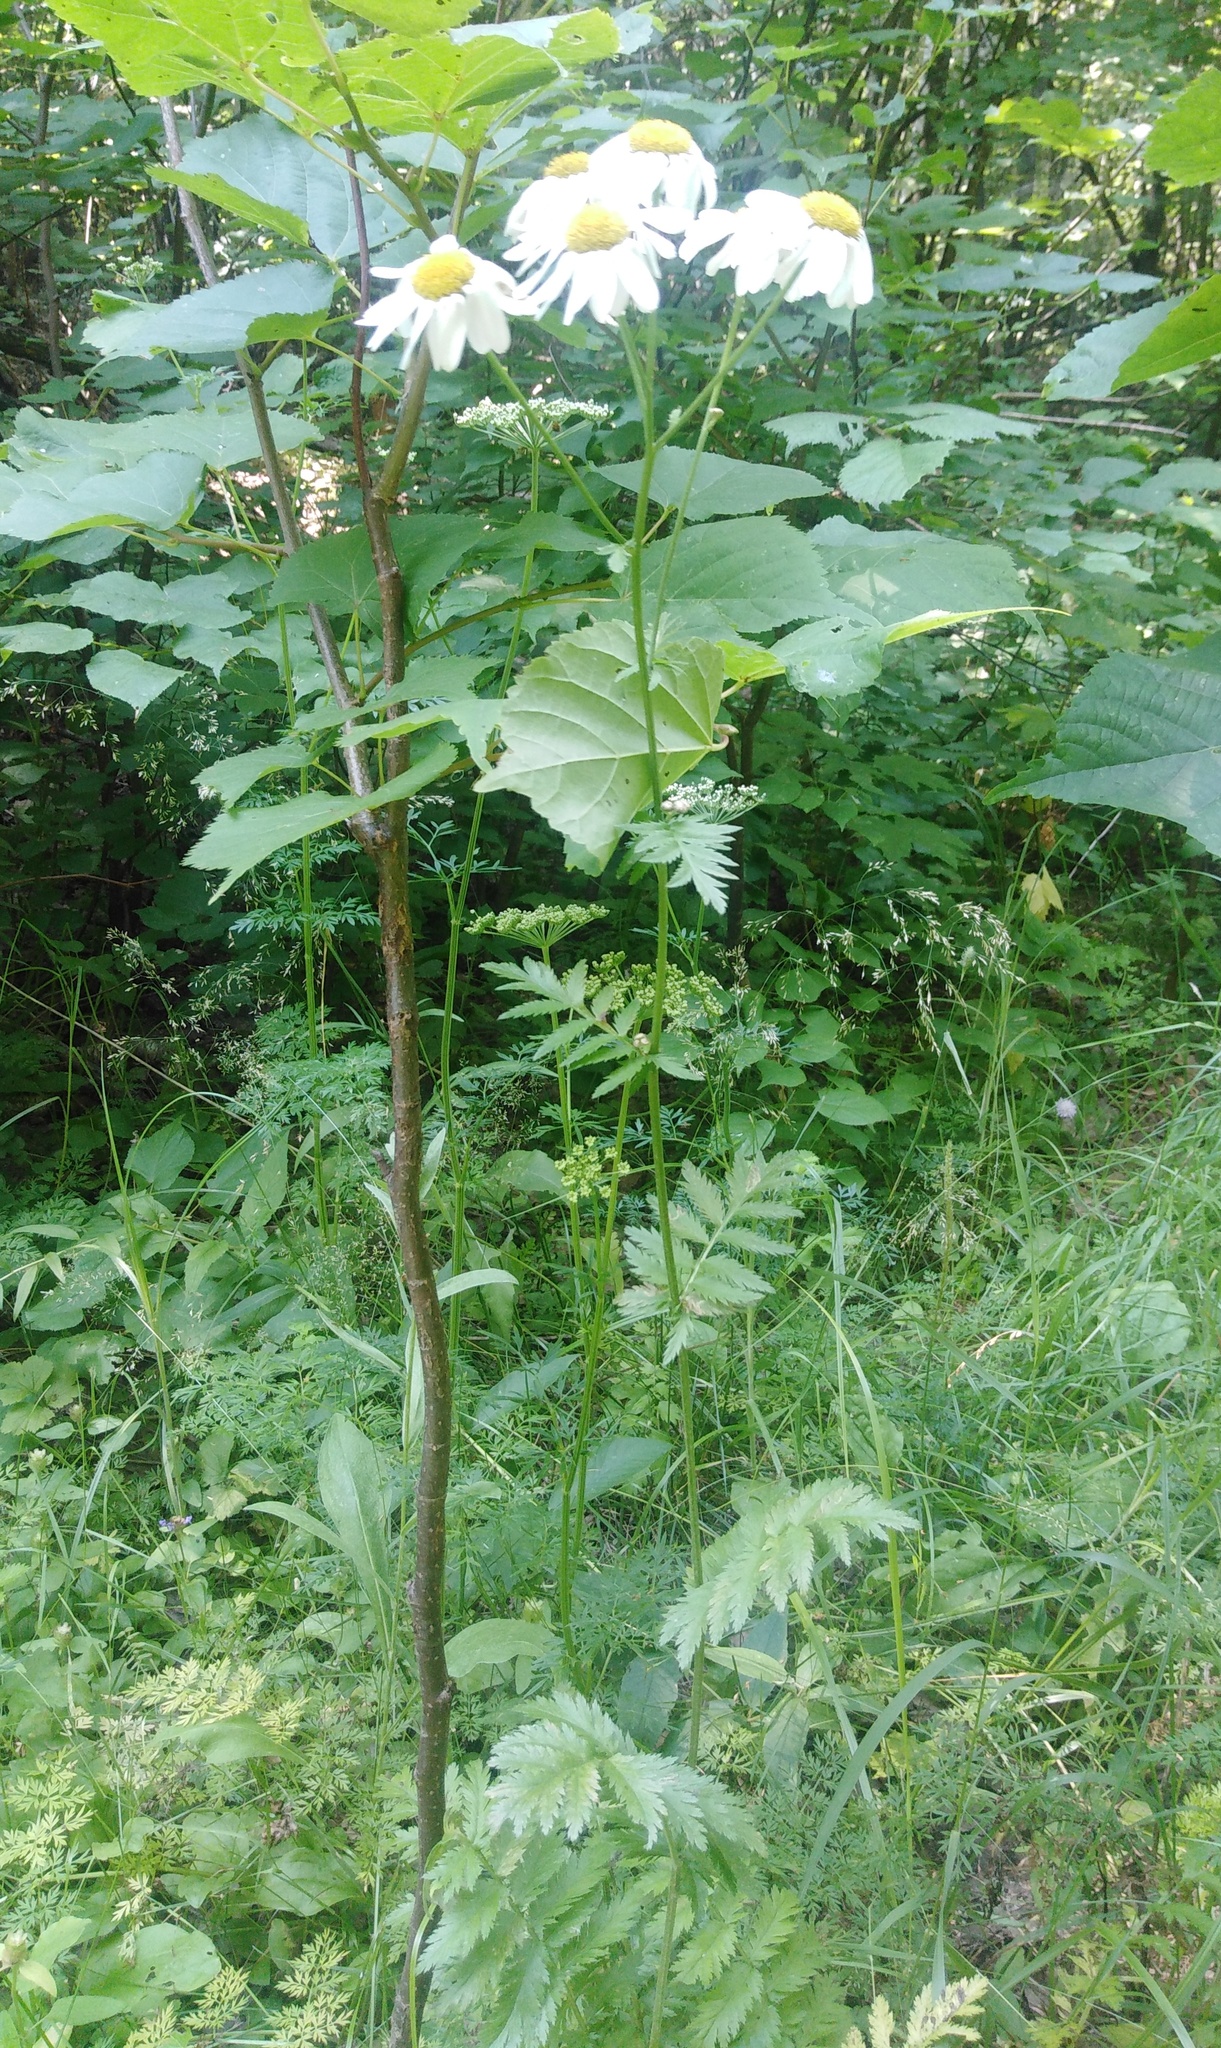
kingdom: Plantae
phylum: Tracheophyta
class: Magnoliopsida
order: Asterales
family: Asteraceae
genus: Tanacetum
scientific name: Tanacetum corymbosum
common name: Scentless feverfew
